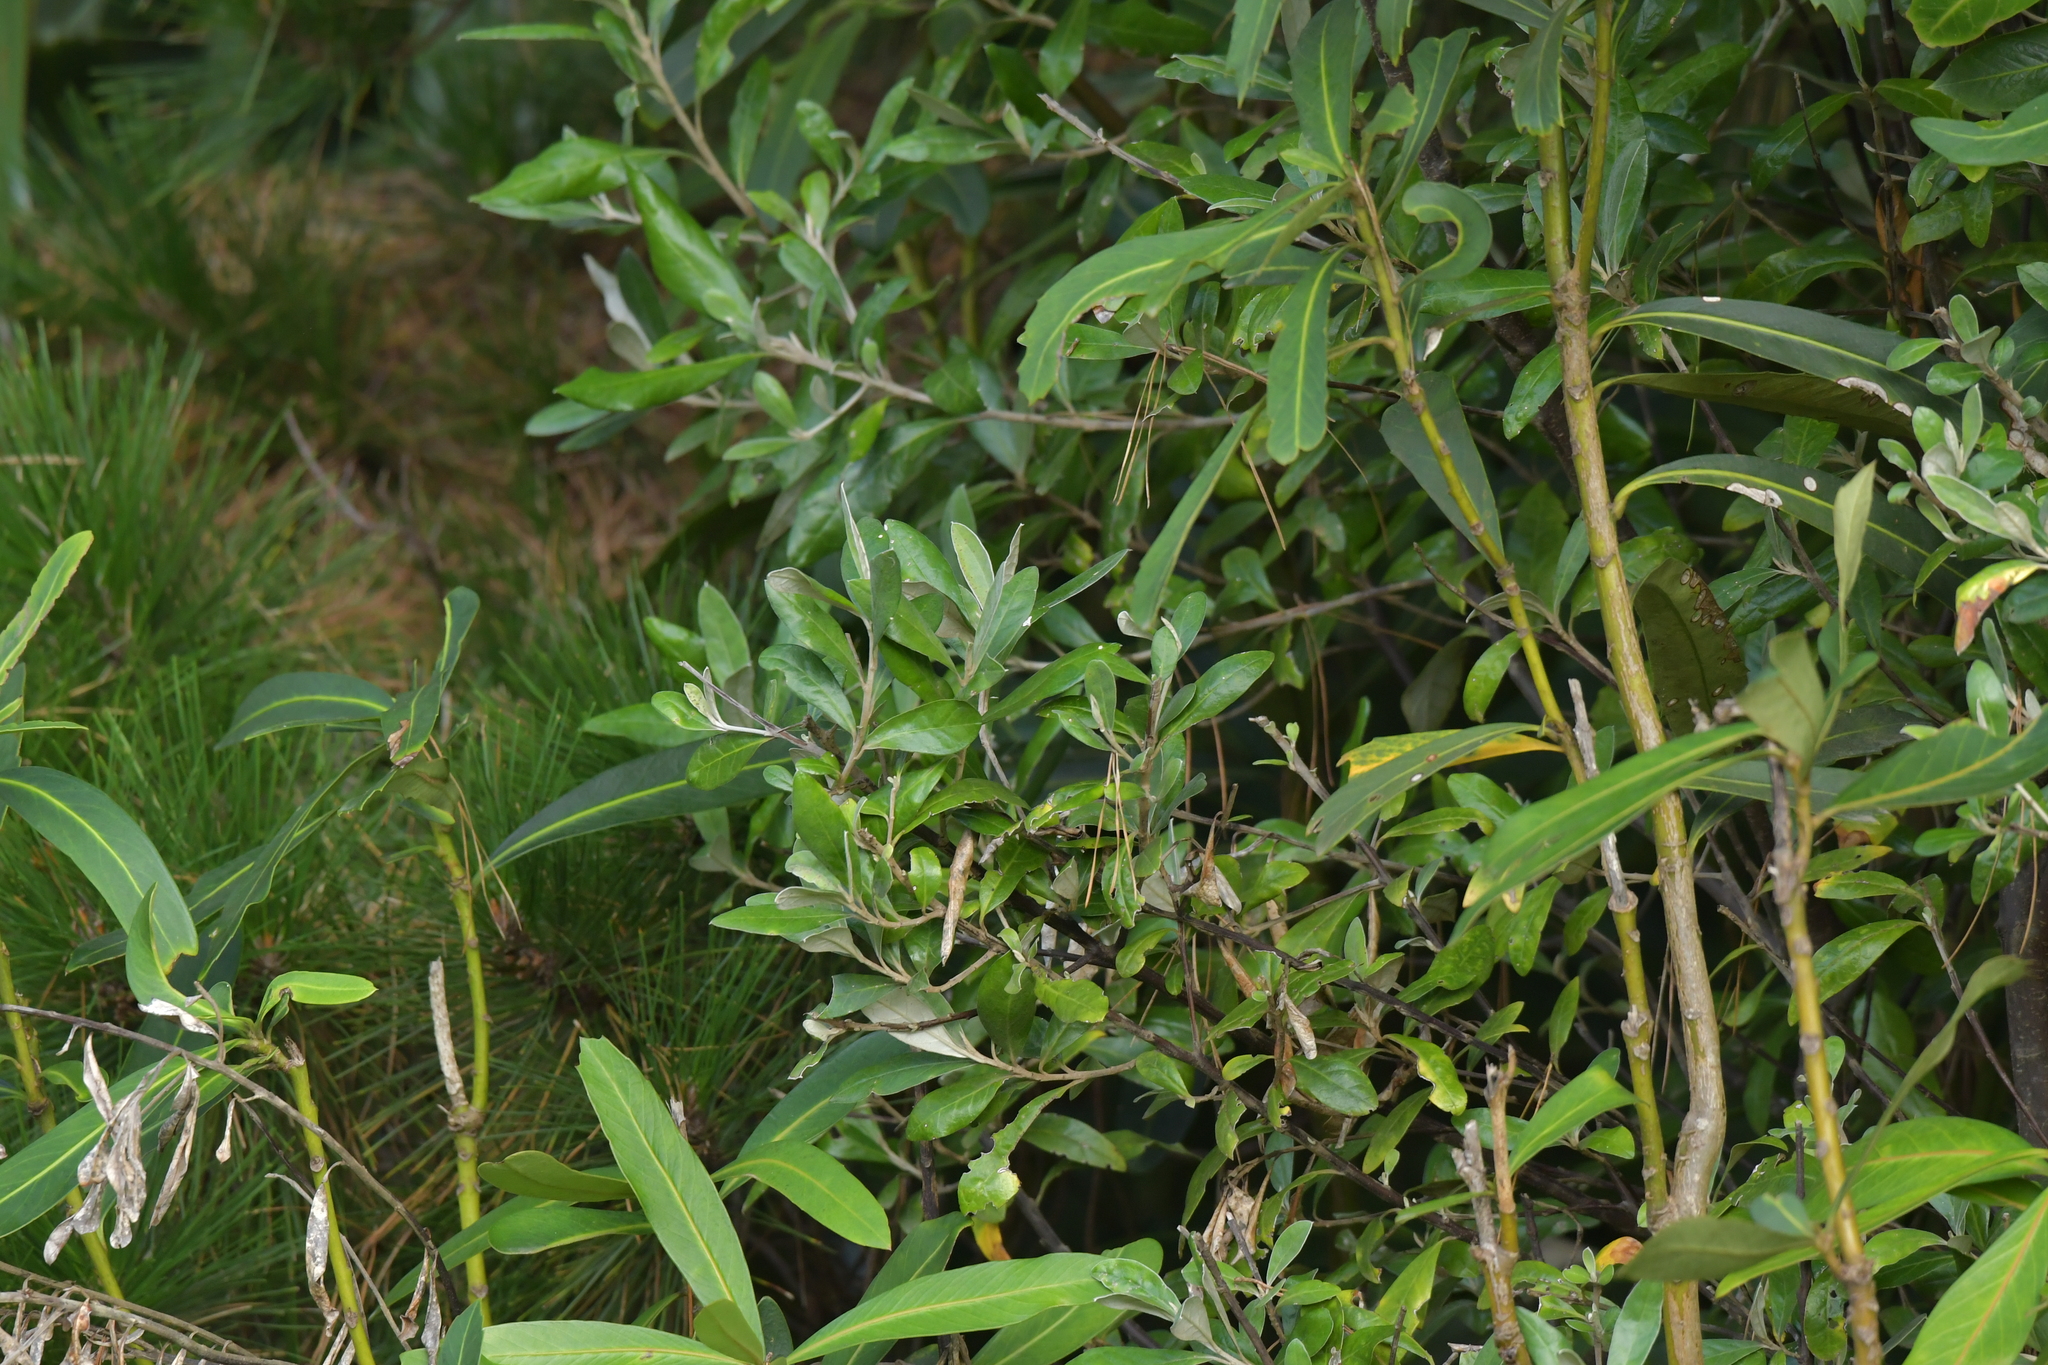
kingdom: Plantae
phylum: Tracheophyta
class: Magnoliopsida
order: Asterales
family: Argophyllaceae
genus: Corokia
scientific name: Corokia macrocarpa
